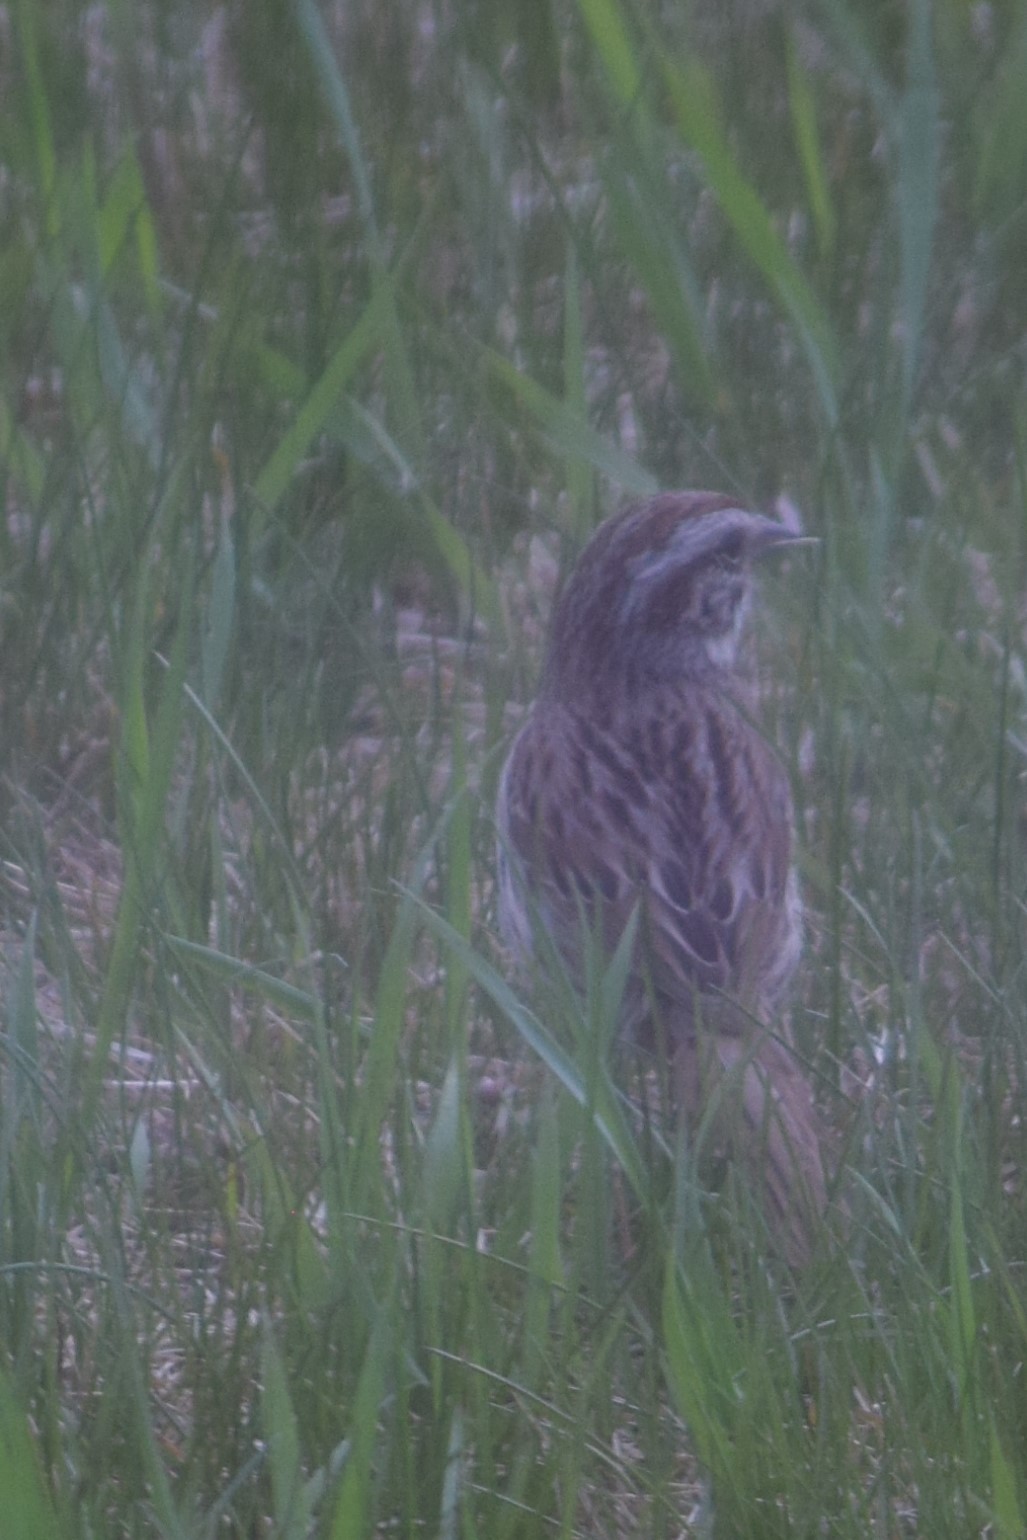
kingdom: Animalia
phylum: Chordata
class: Aves
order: Passeriformes
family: Passerellidae
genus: Melospiza
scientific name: Melospiza melodia
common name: Song sparrow
